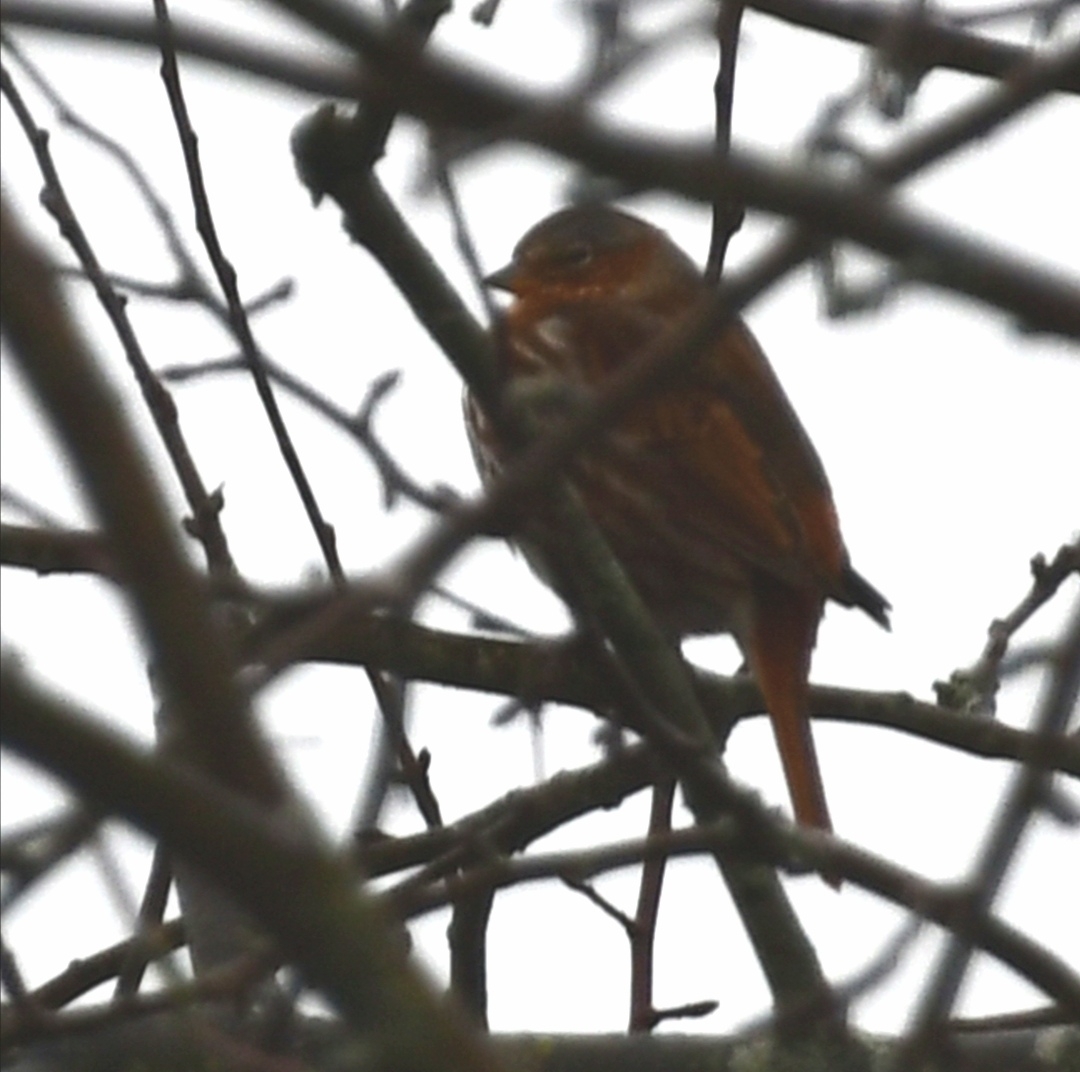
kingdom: Animalia
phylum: Chordata
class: Aves
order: Passeriformes
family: Passerellidae
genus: Passerella
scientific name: Passerella iliaca
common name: Fox sparrow
